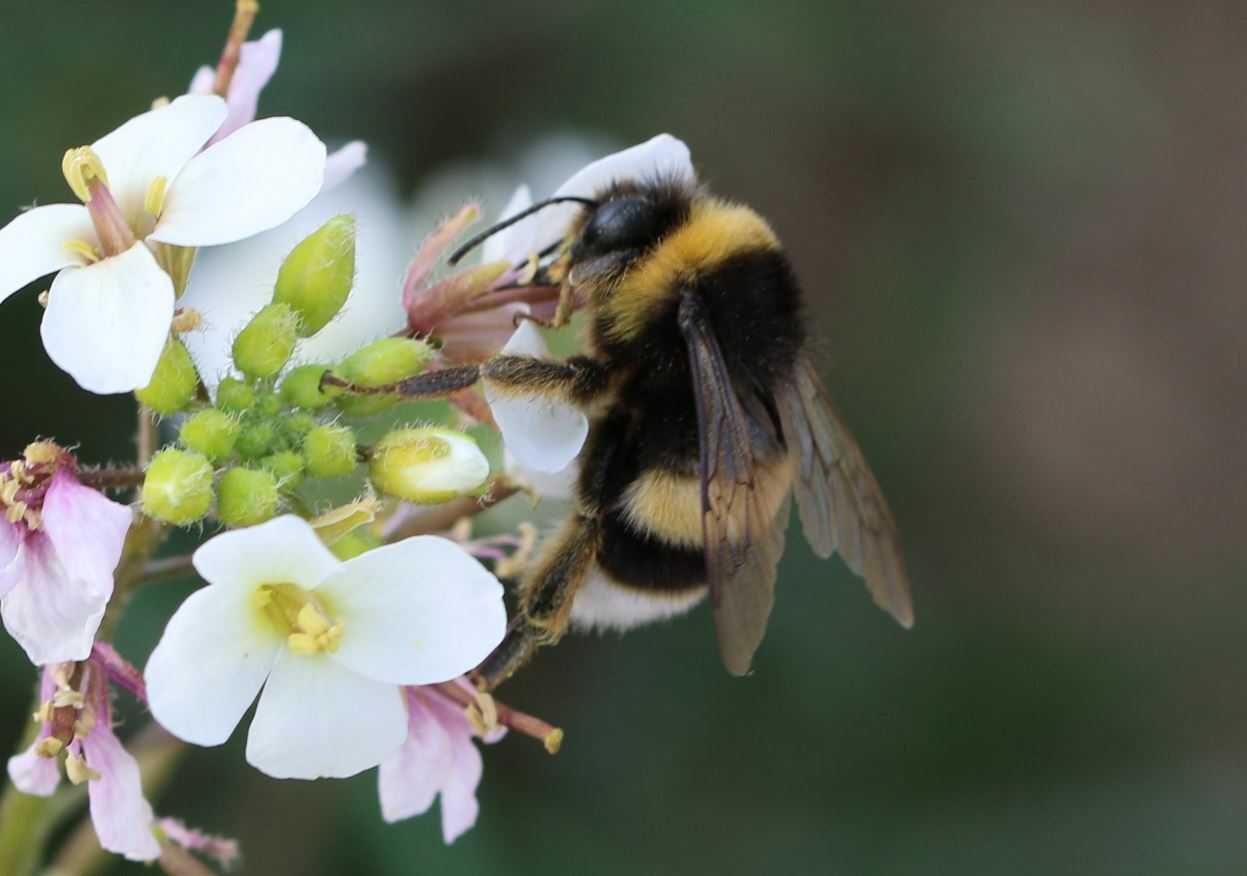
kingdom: Animalia
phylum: Arthropoda
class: Insecta
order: Hymenoptera
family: Apidae
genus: Bombus
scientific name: Bombus
